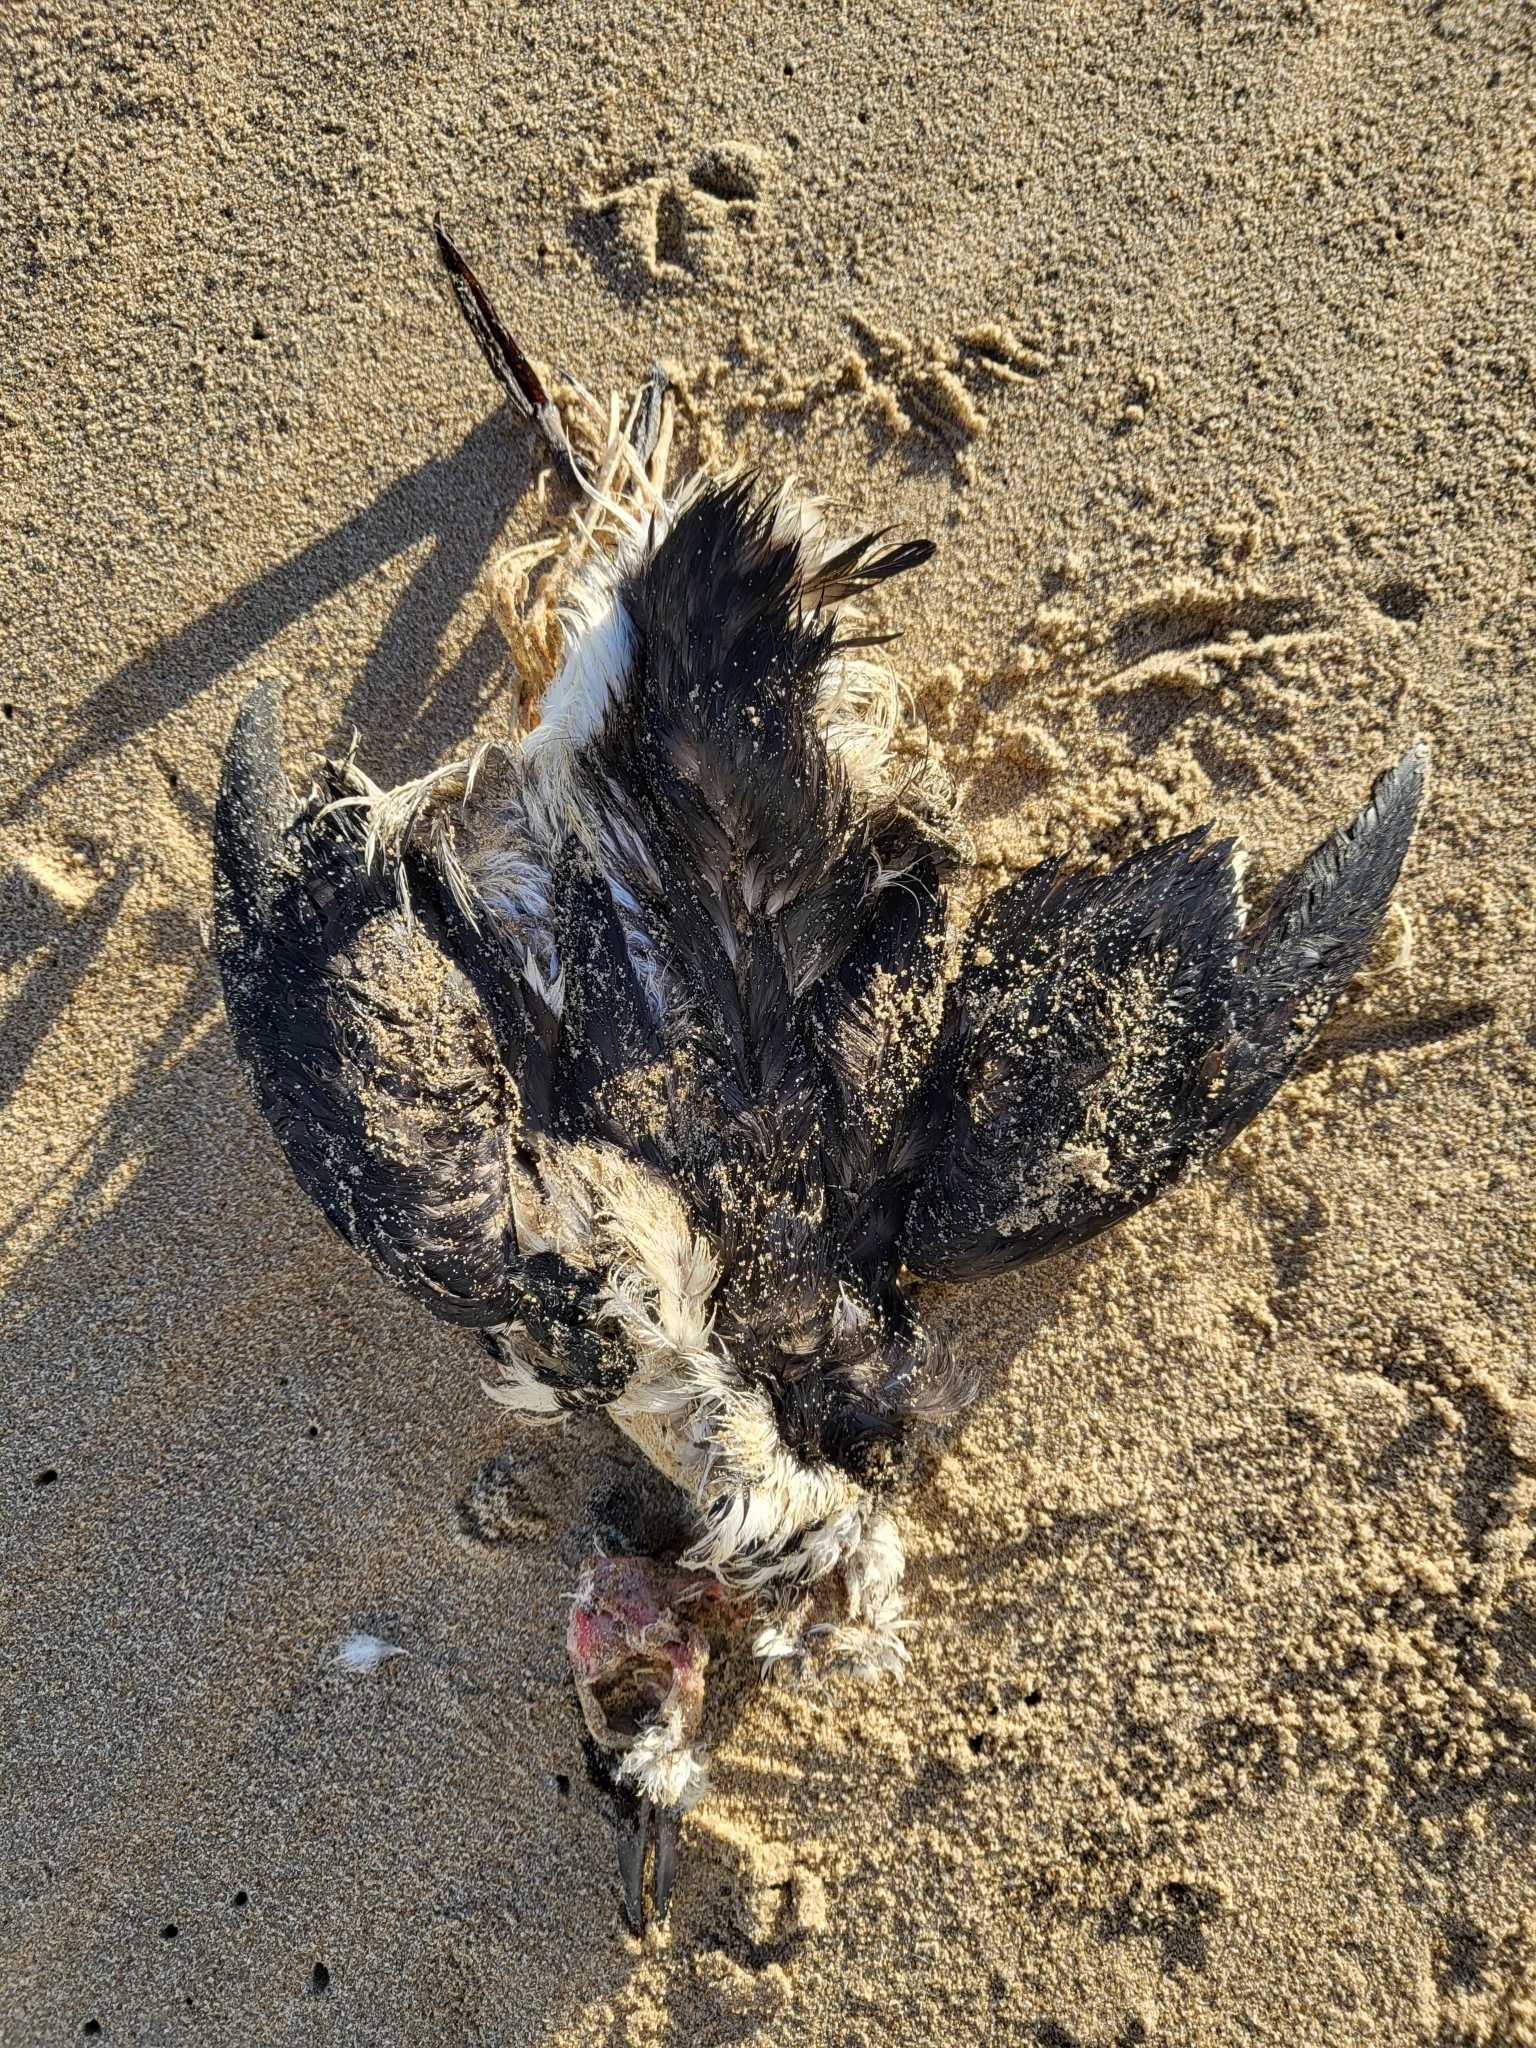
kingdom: Animalia
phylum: Chordata
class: Aves
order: Charadriiformes
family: Alcidae
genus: Uria
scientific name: Uria aalge
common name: Common murre
